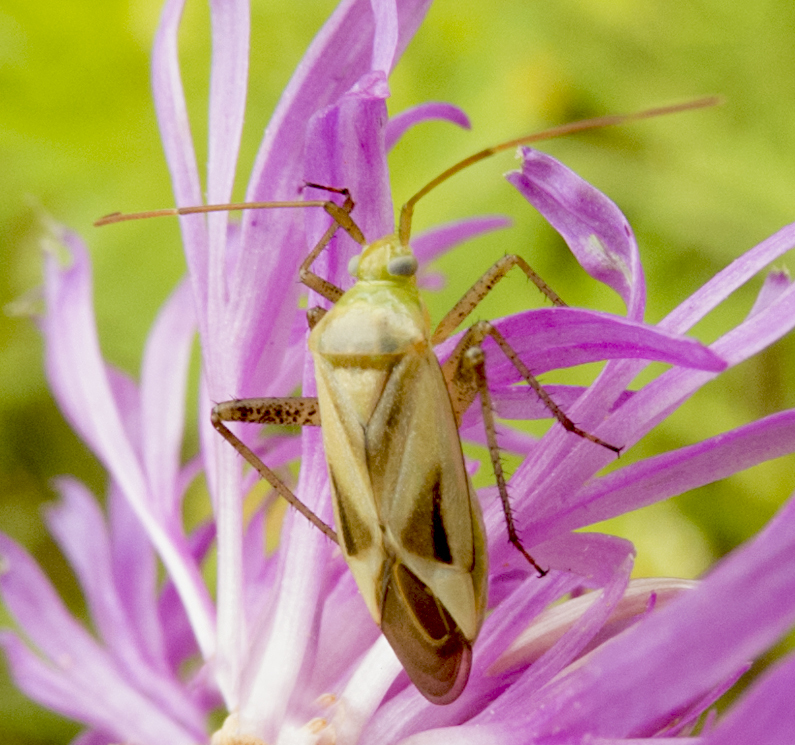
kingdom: Animalia
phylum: Arthropoda
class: Insecta
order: Hemiptera
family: Miridae
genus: Adelphocoris
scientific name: Adelphocoris lineolatus
